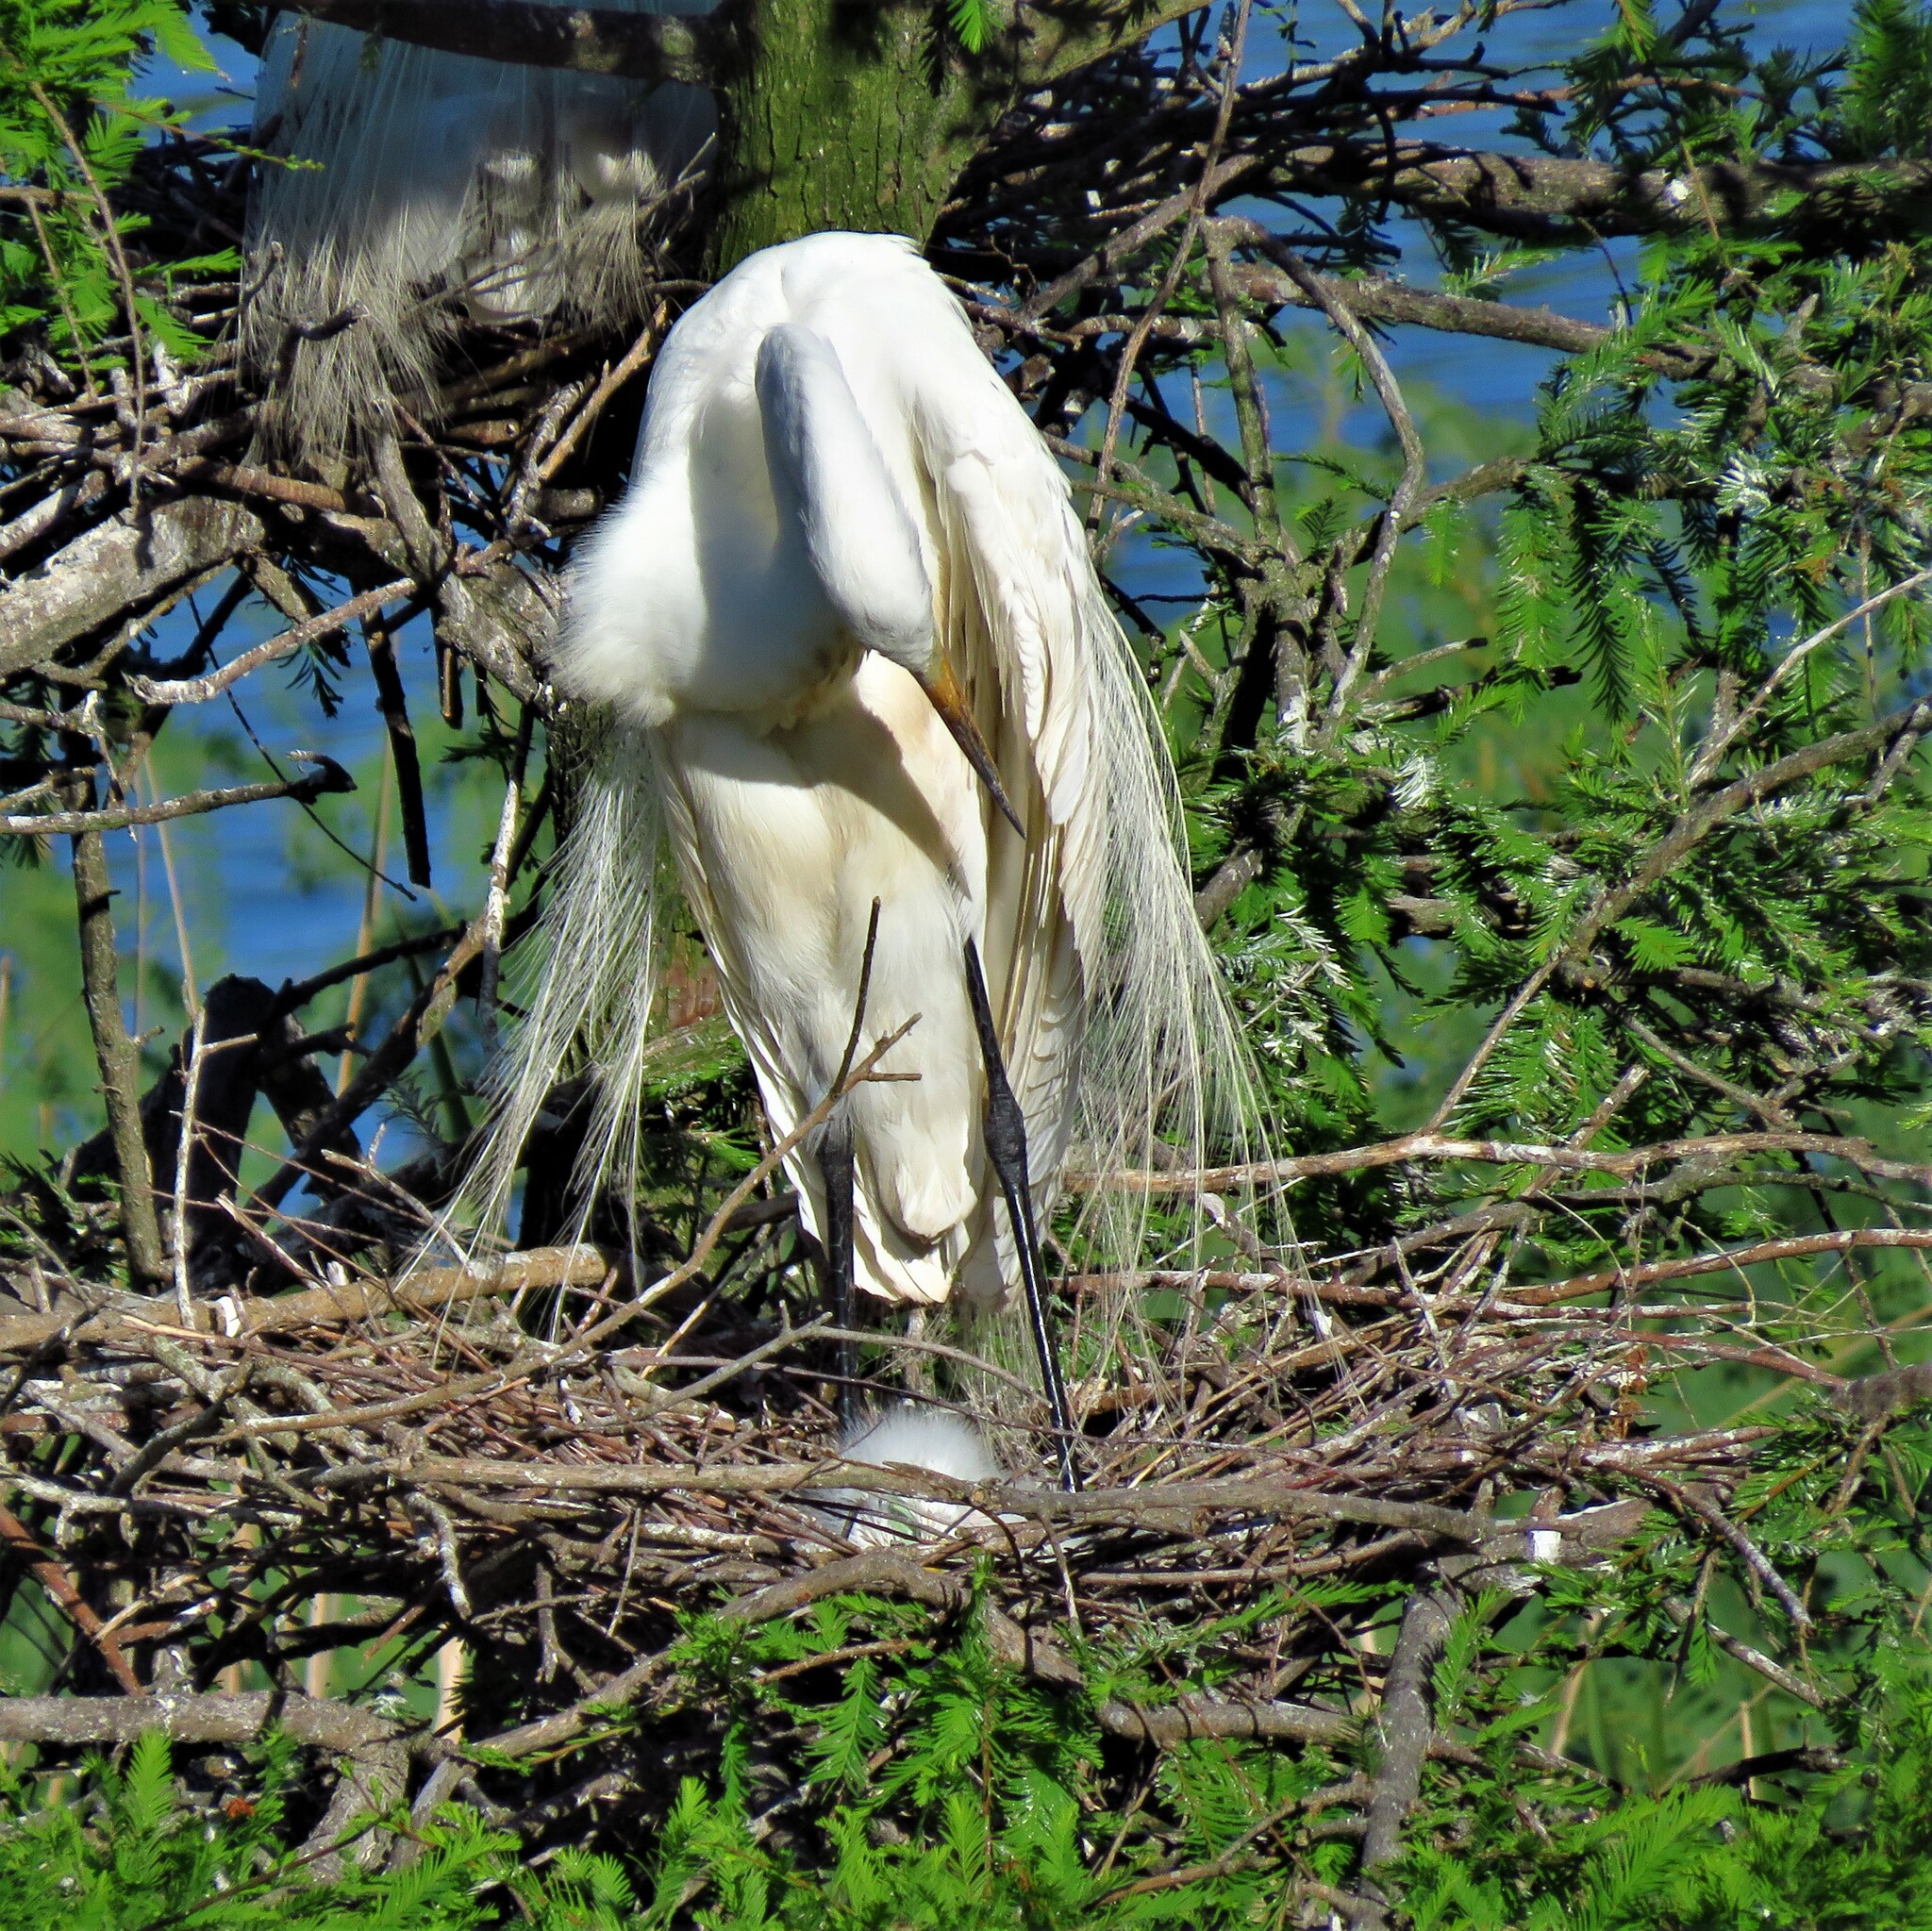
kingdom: Animalia
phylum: Chordata
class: Aves
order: Pelecaniformes
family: Ardeidae
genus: Ardea
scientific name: Ardea alba
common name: Great egret
